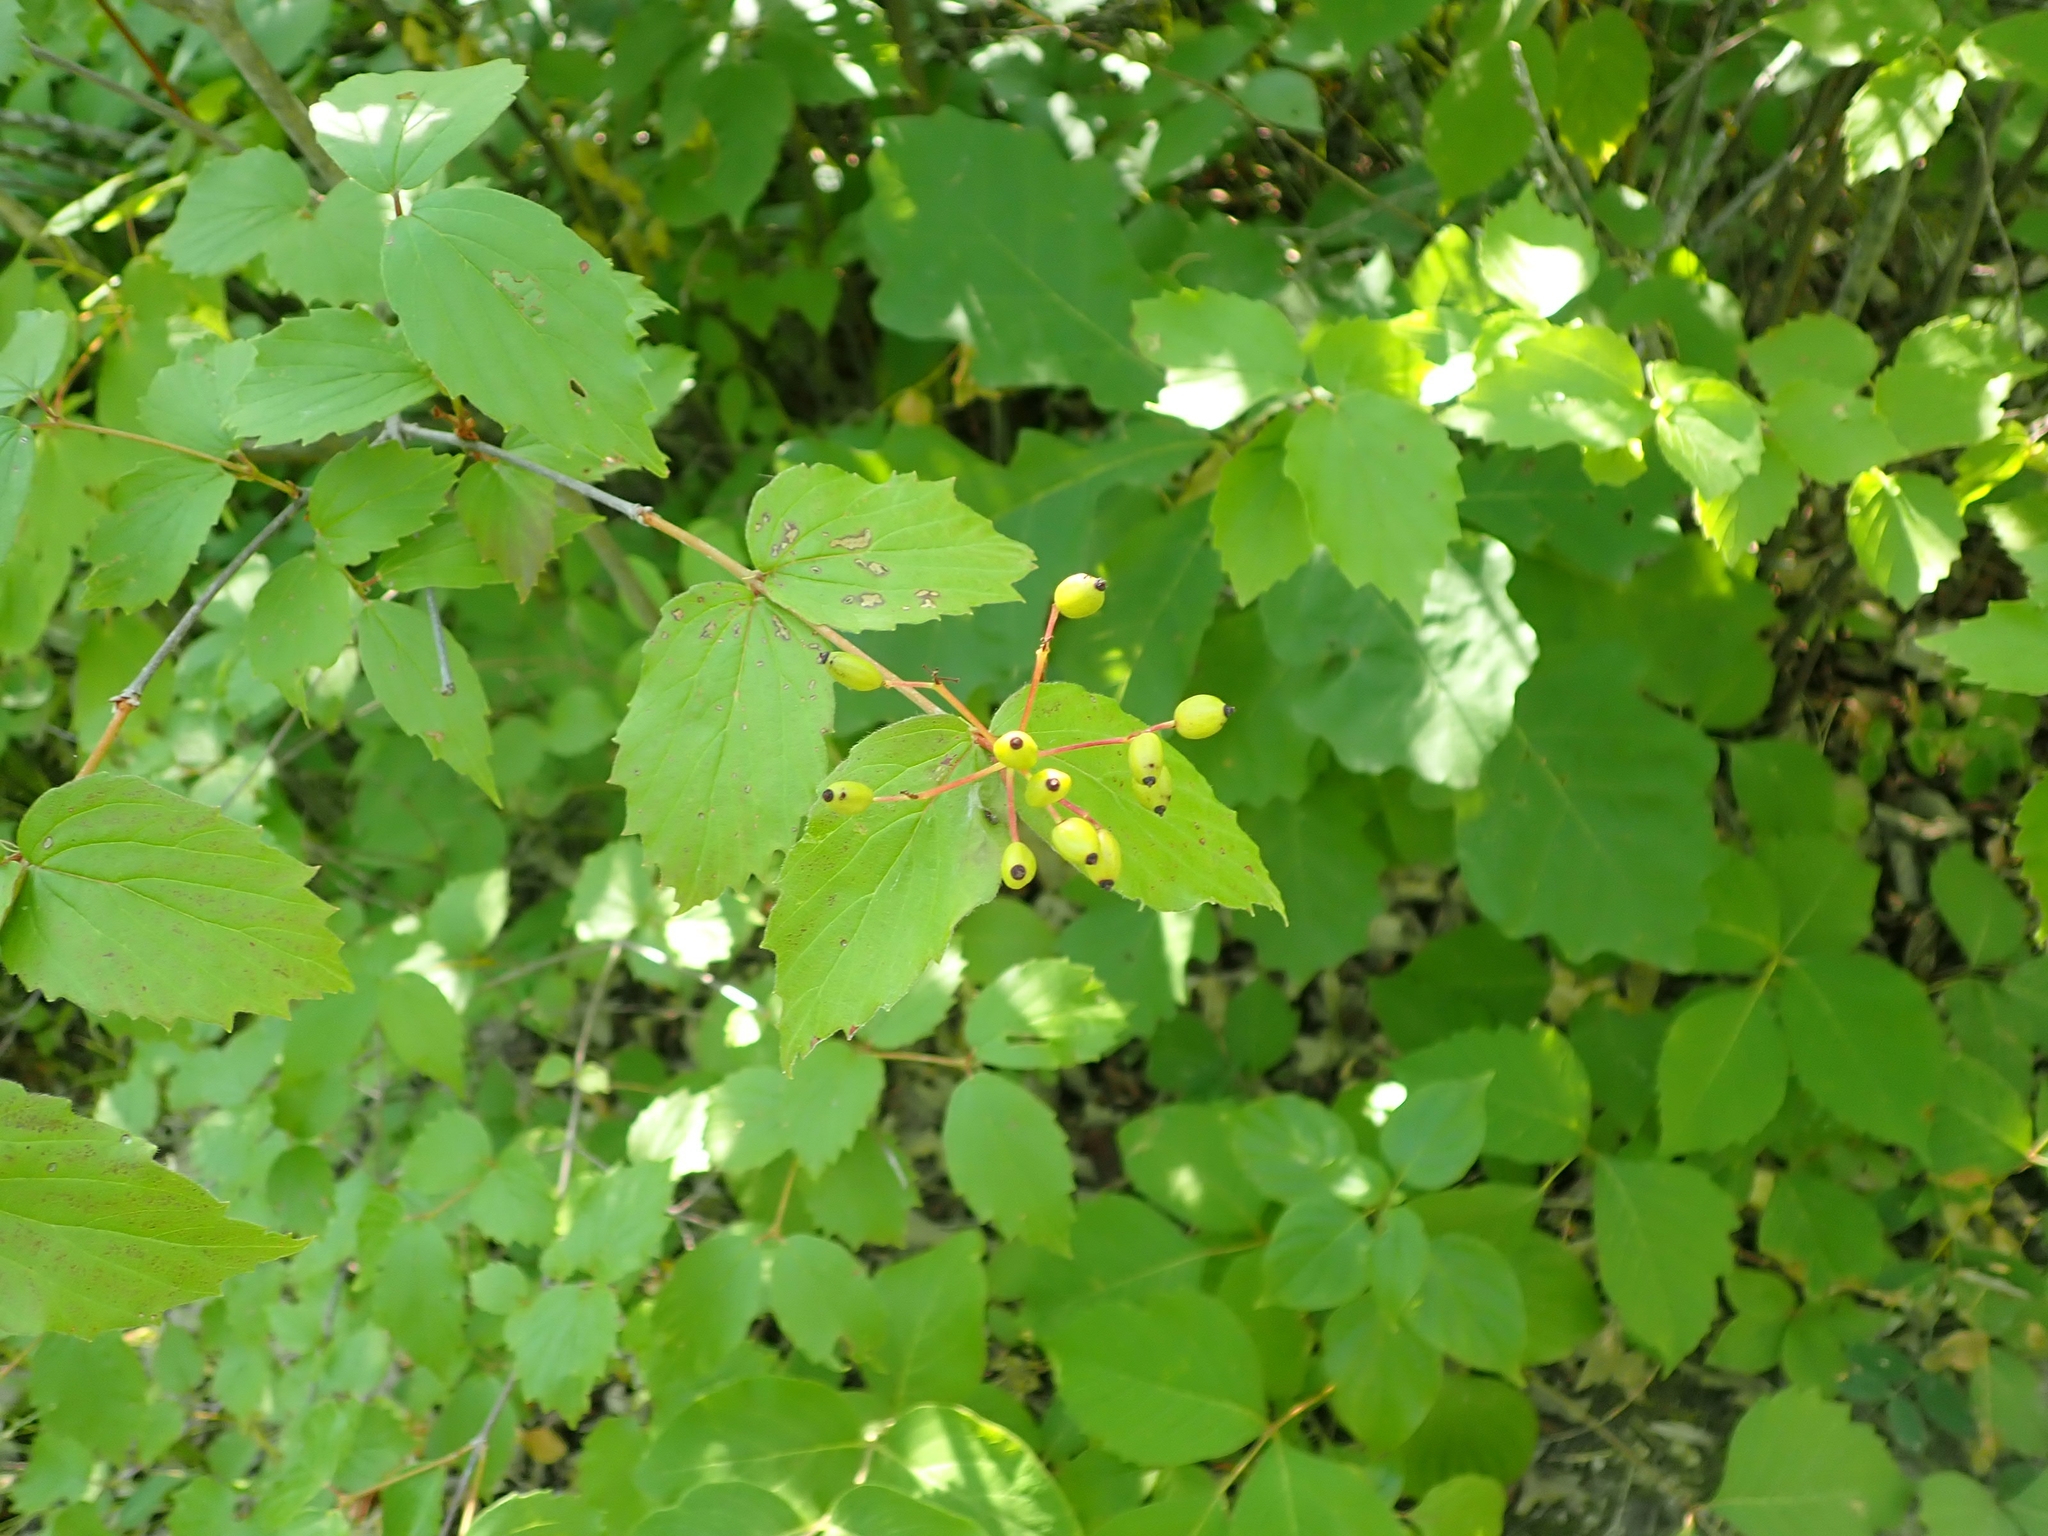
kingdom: Plantae
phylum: Tracheophyta
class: Magnoliopsida
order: Dipsacales
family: Viburnaceae
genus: Viburnum
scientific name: Viburnum rafinesqueanum
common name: Downy arrow-wood
